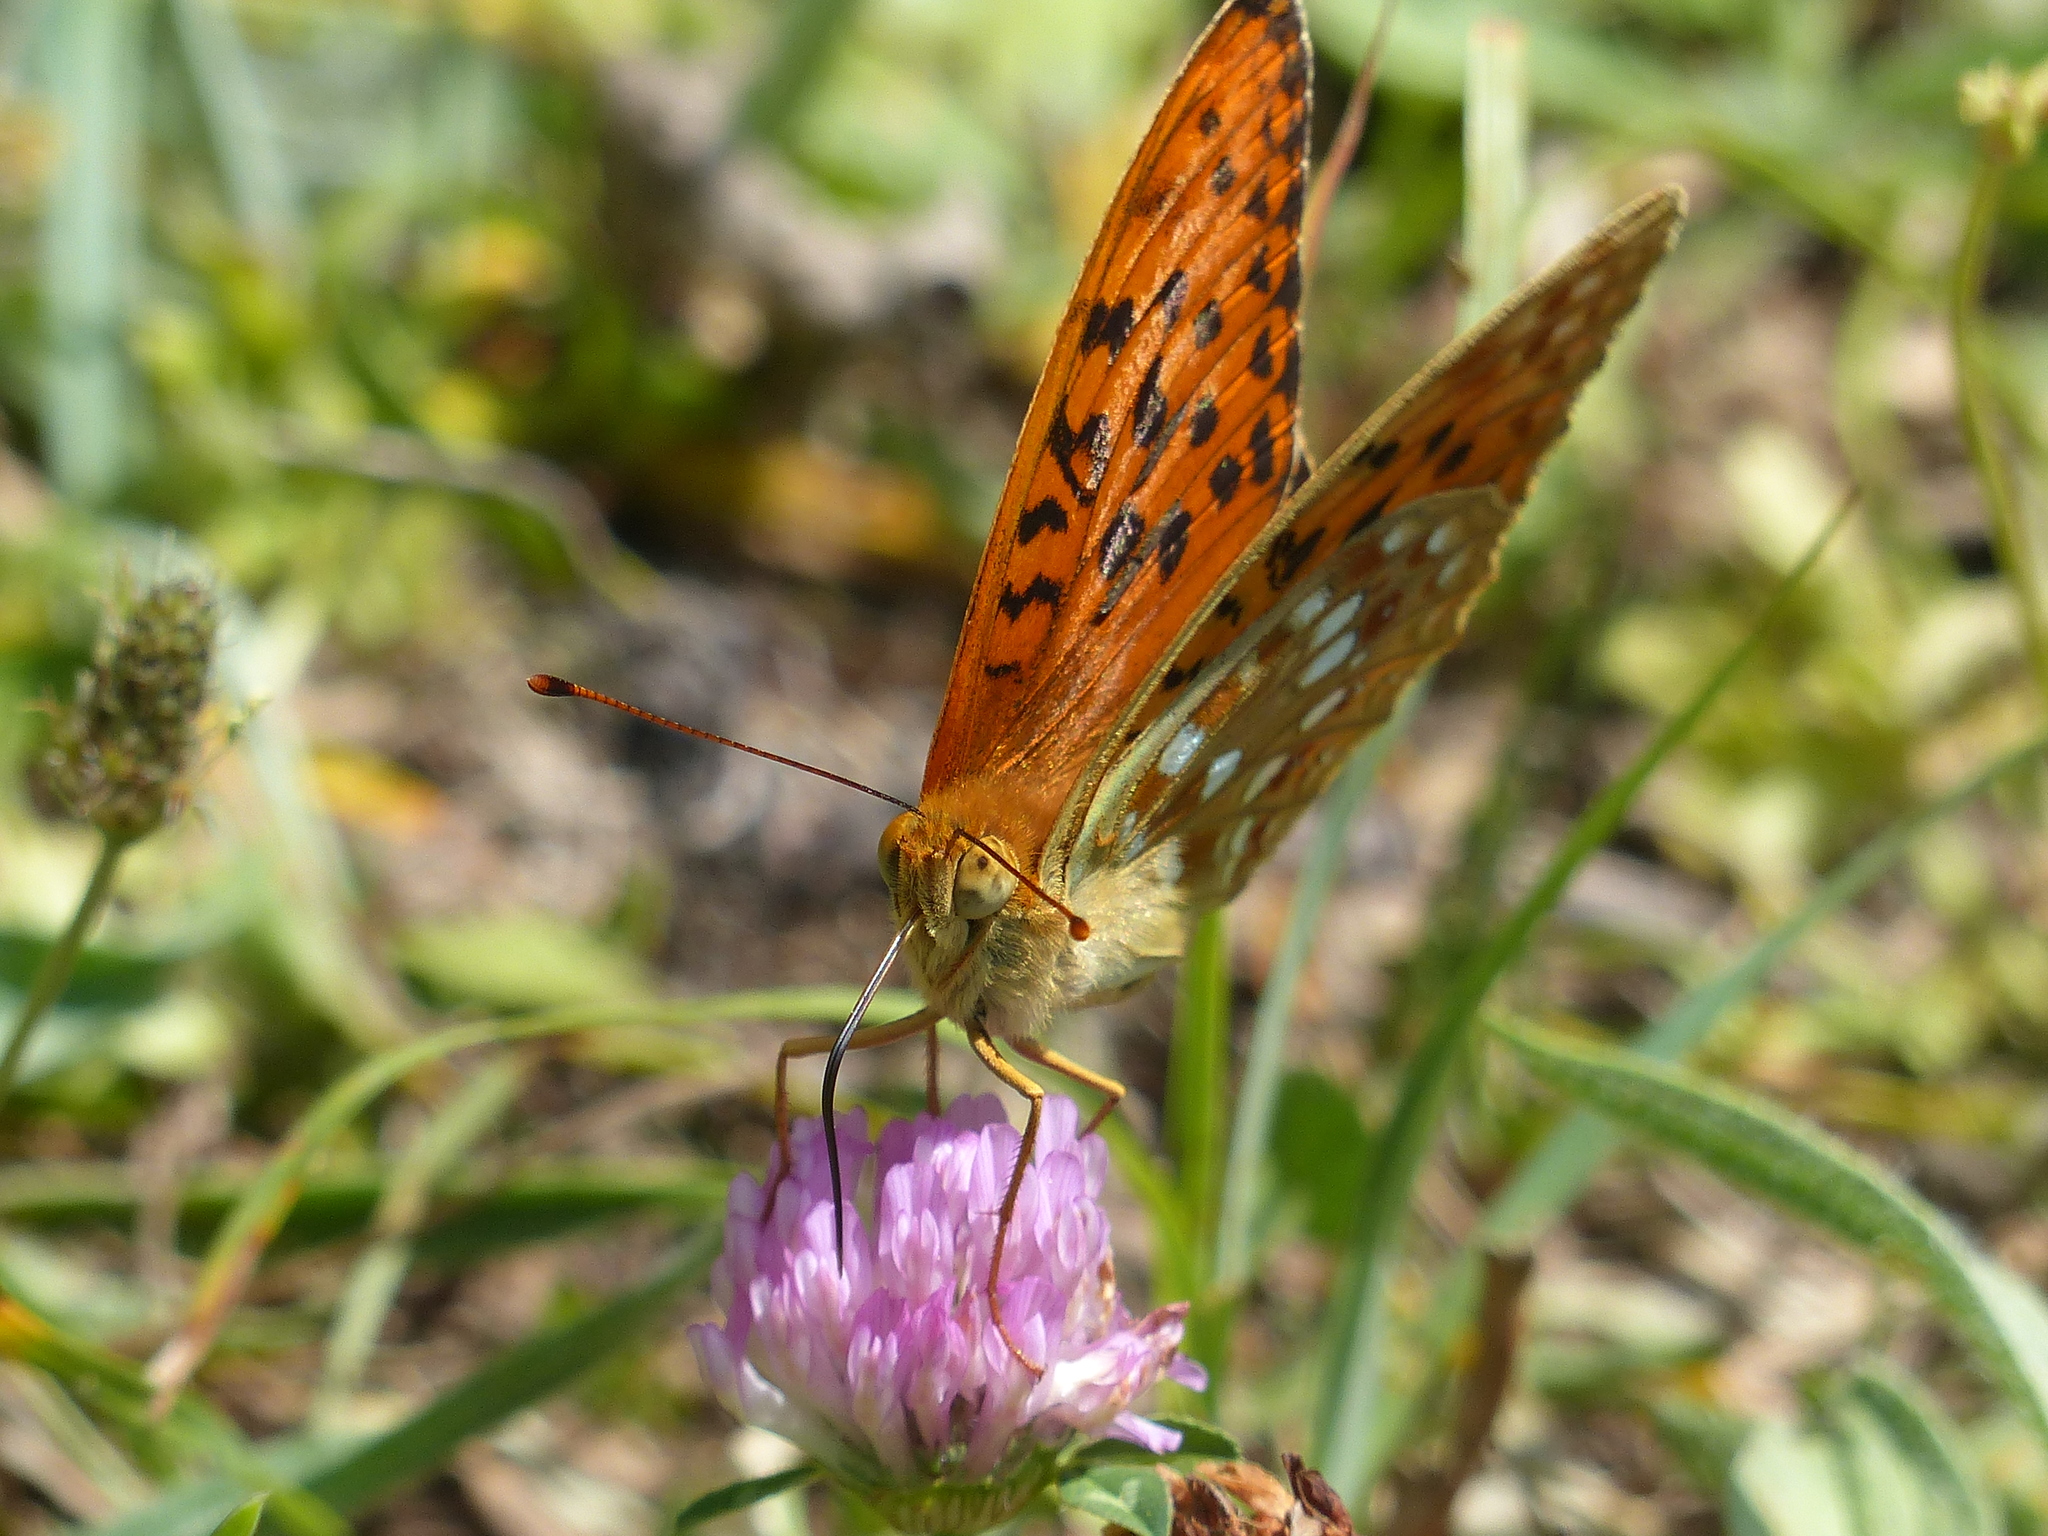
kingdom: Animalia
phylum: Arthropoda
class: Insecta
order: Lepidoptera
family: Nymphalidae
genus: Fabriciana
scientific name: Fabriciana adippe
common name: High brown fritillary
